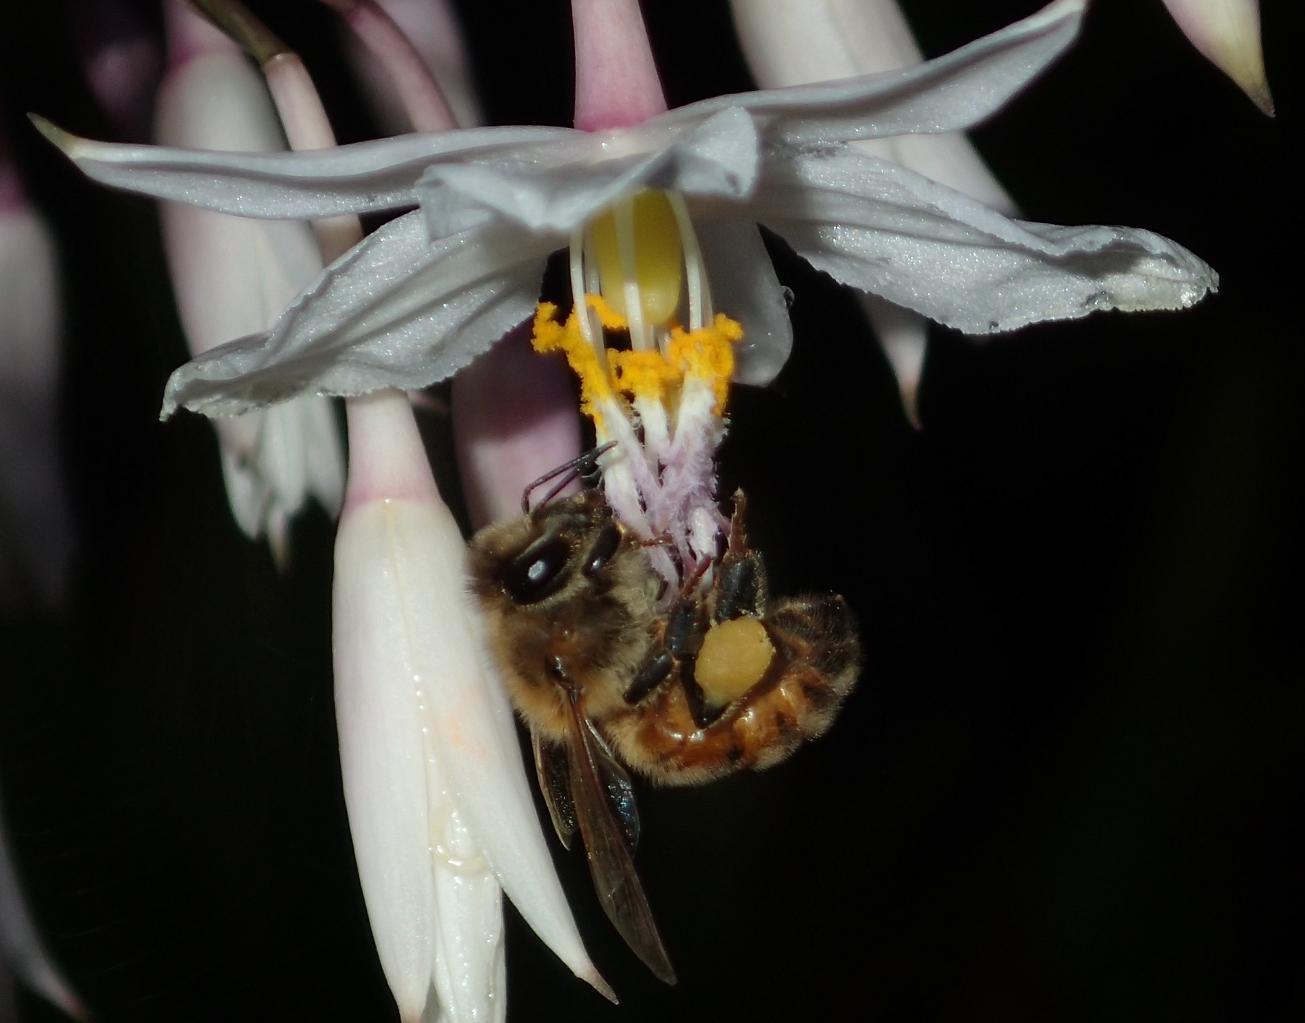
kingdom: Animalia
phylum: Arthropoda
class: Insecta
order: Hymenoptera
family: Apidae
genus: Apis
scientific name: Apis mellifera
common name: Honey bee
